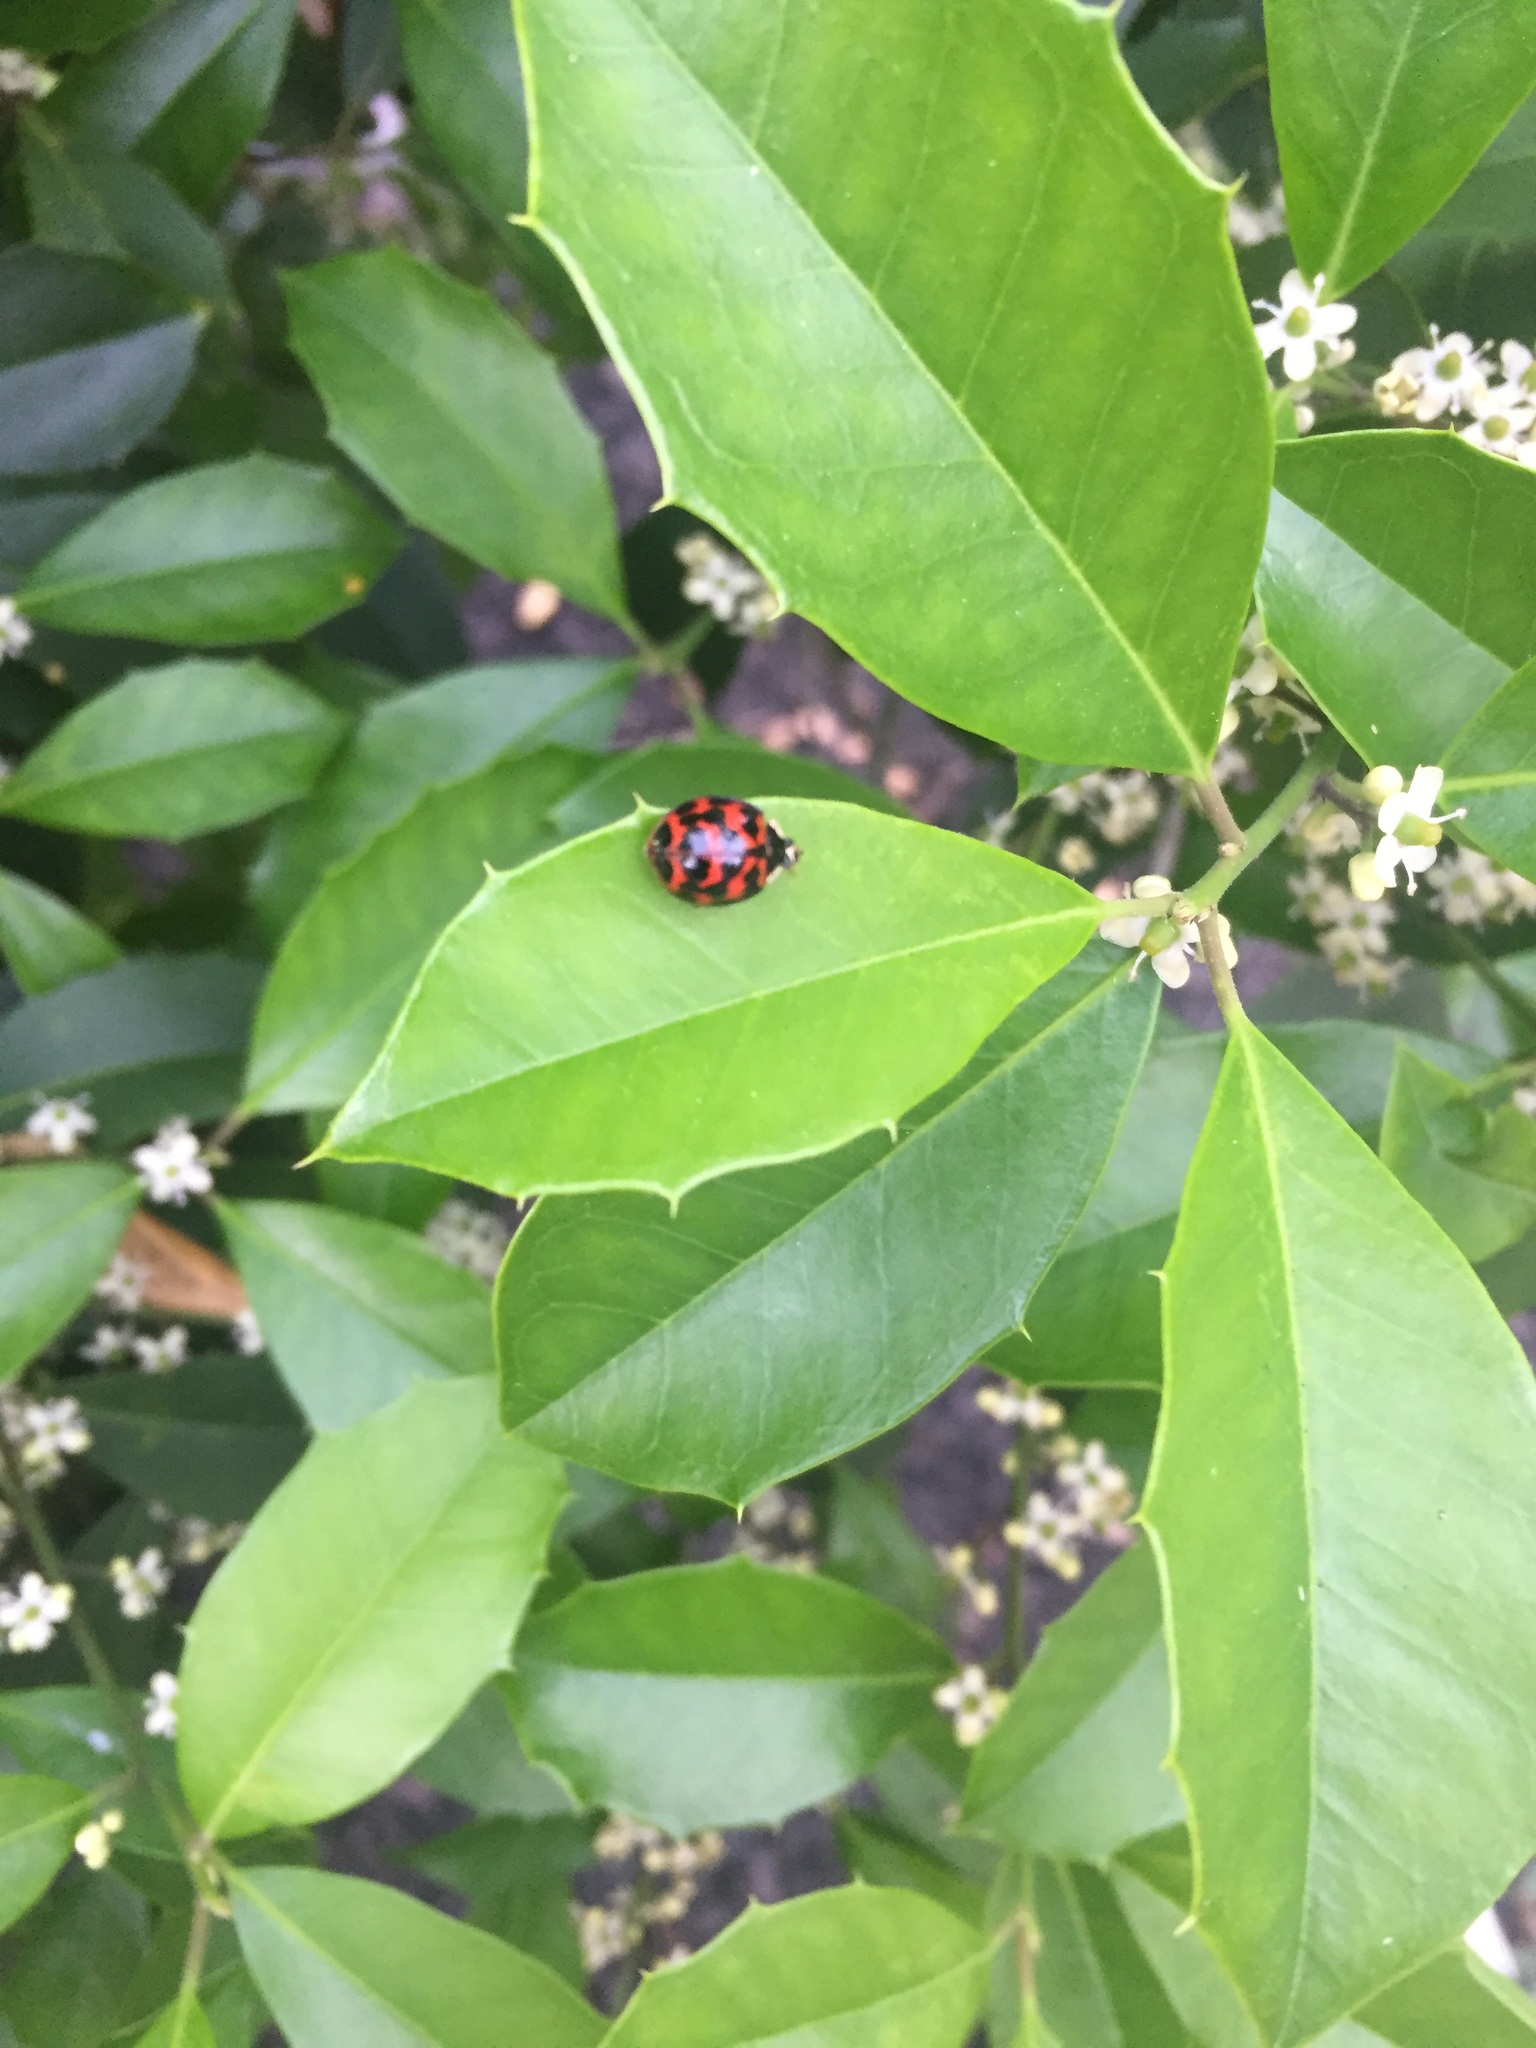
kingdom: Animalia
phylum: Arthropoda
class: Insecta
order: Coleoptera
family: Coccinellidae
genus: Harmonia
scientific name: Harmonia axyridis
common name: Harlequin ladybird
